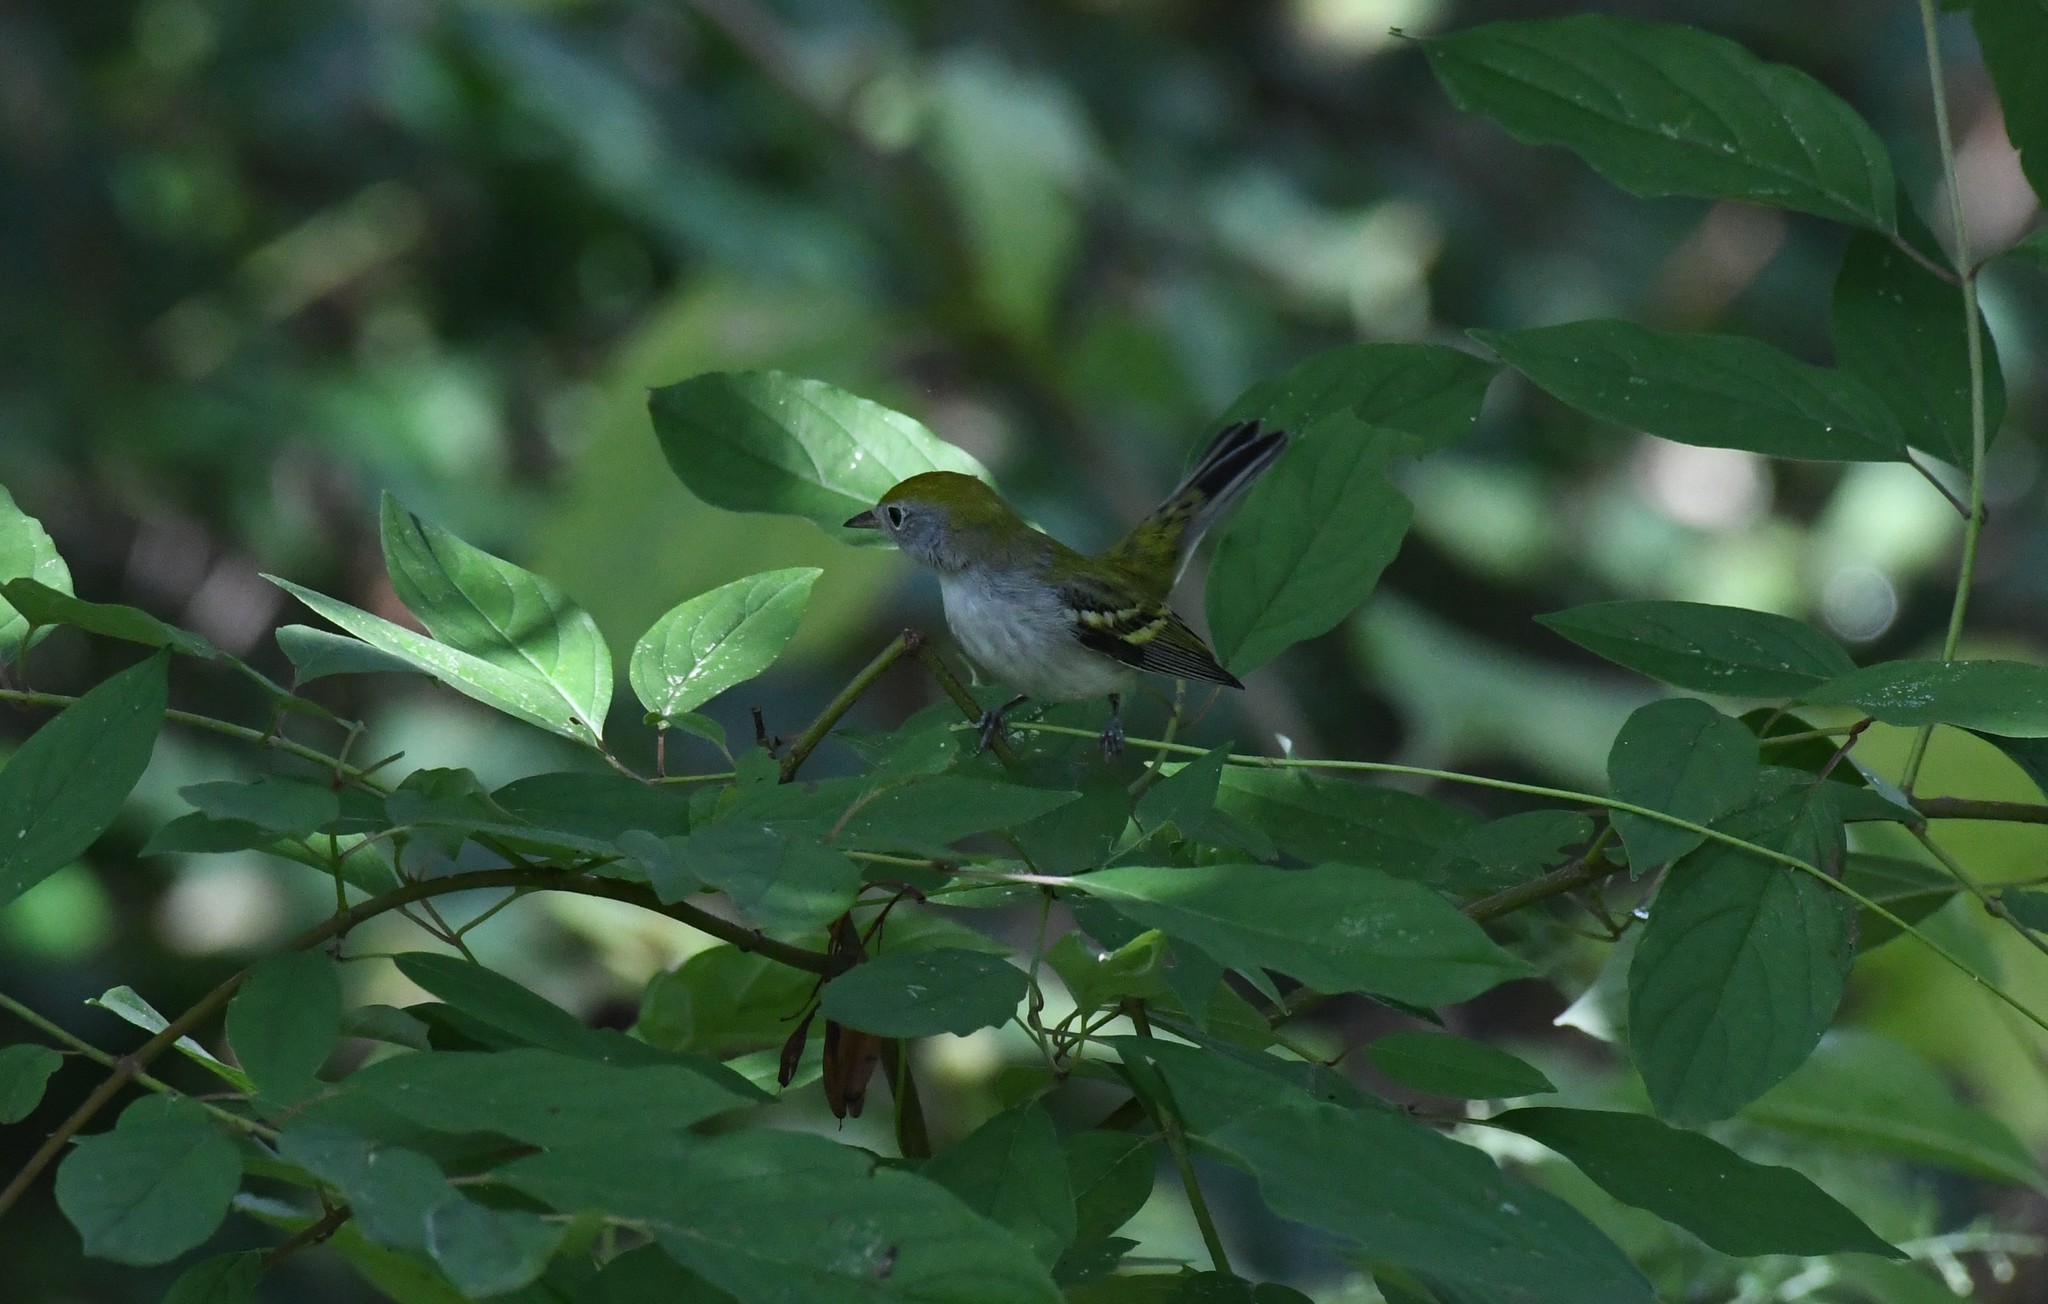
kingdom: Animalia
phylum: Chordata
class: Aves
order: Passeriformes
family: Parulidae
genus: Setophaga
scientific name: Setophaga pensylvanica
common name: Chestnut-sided warbler
